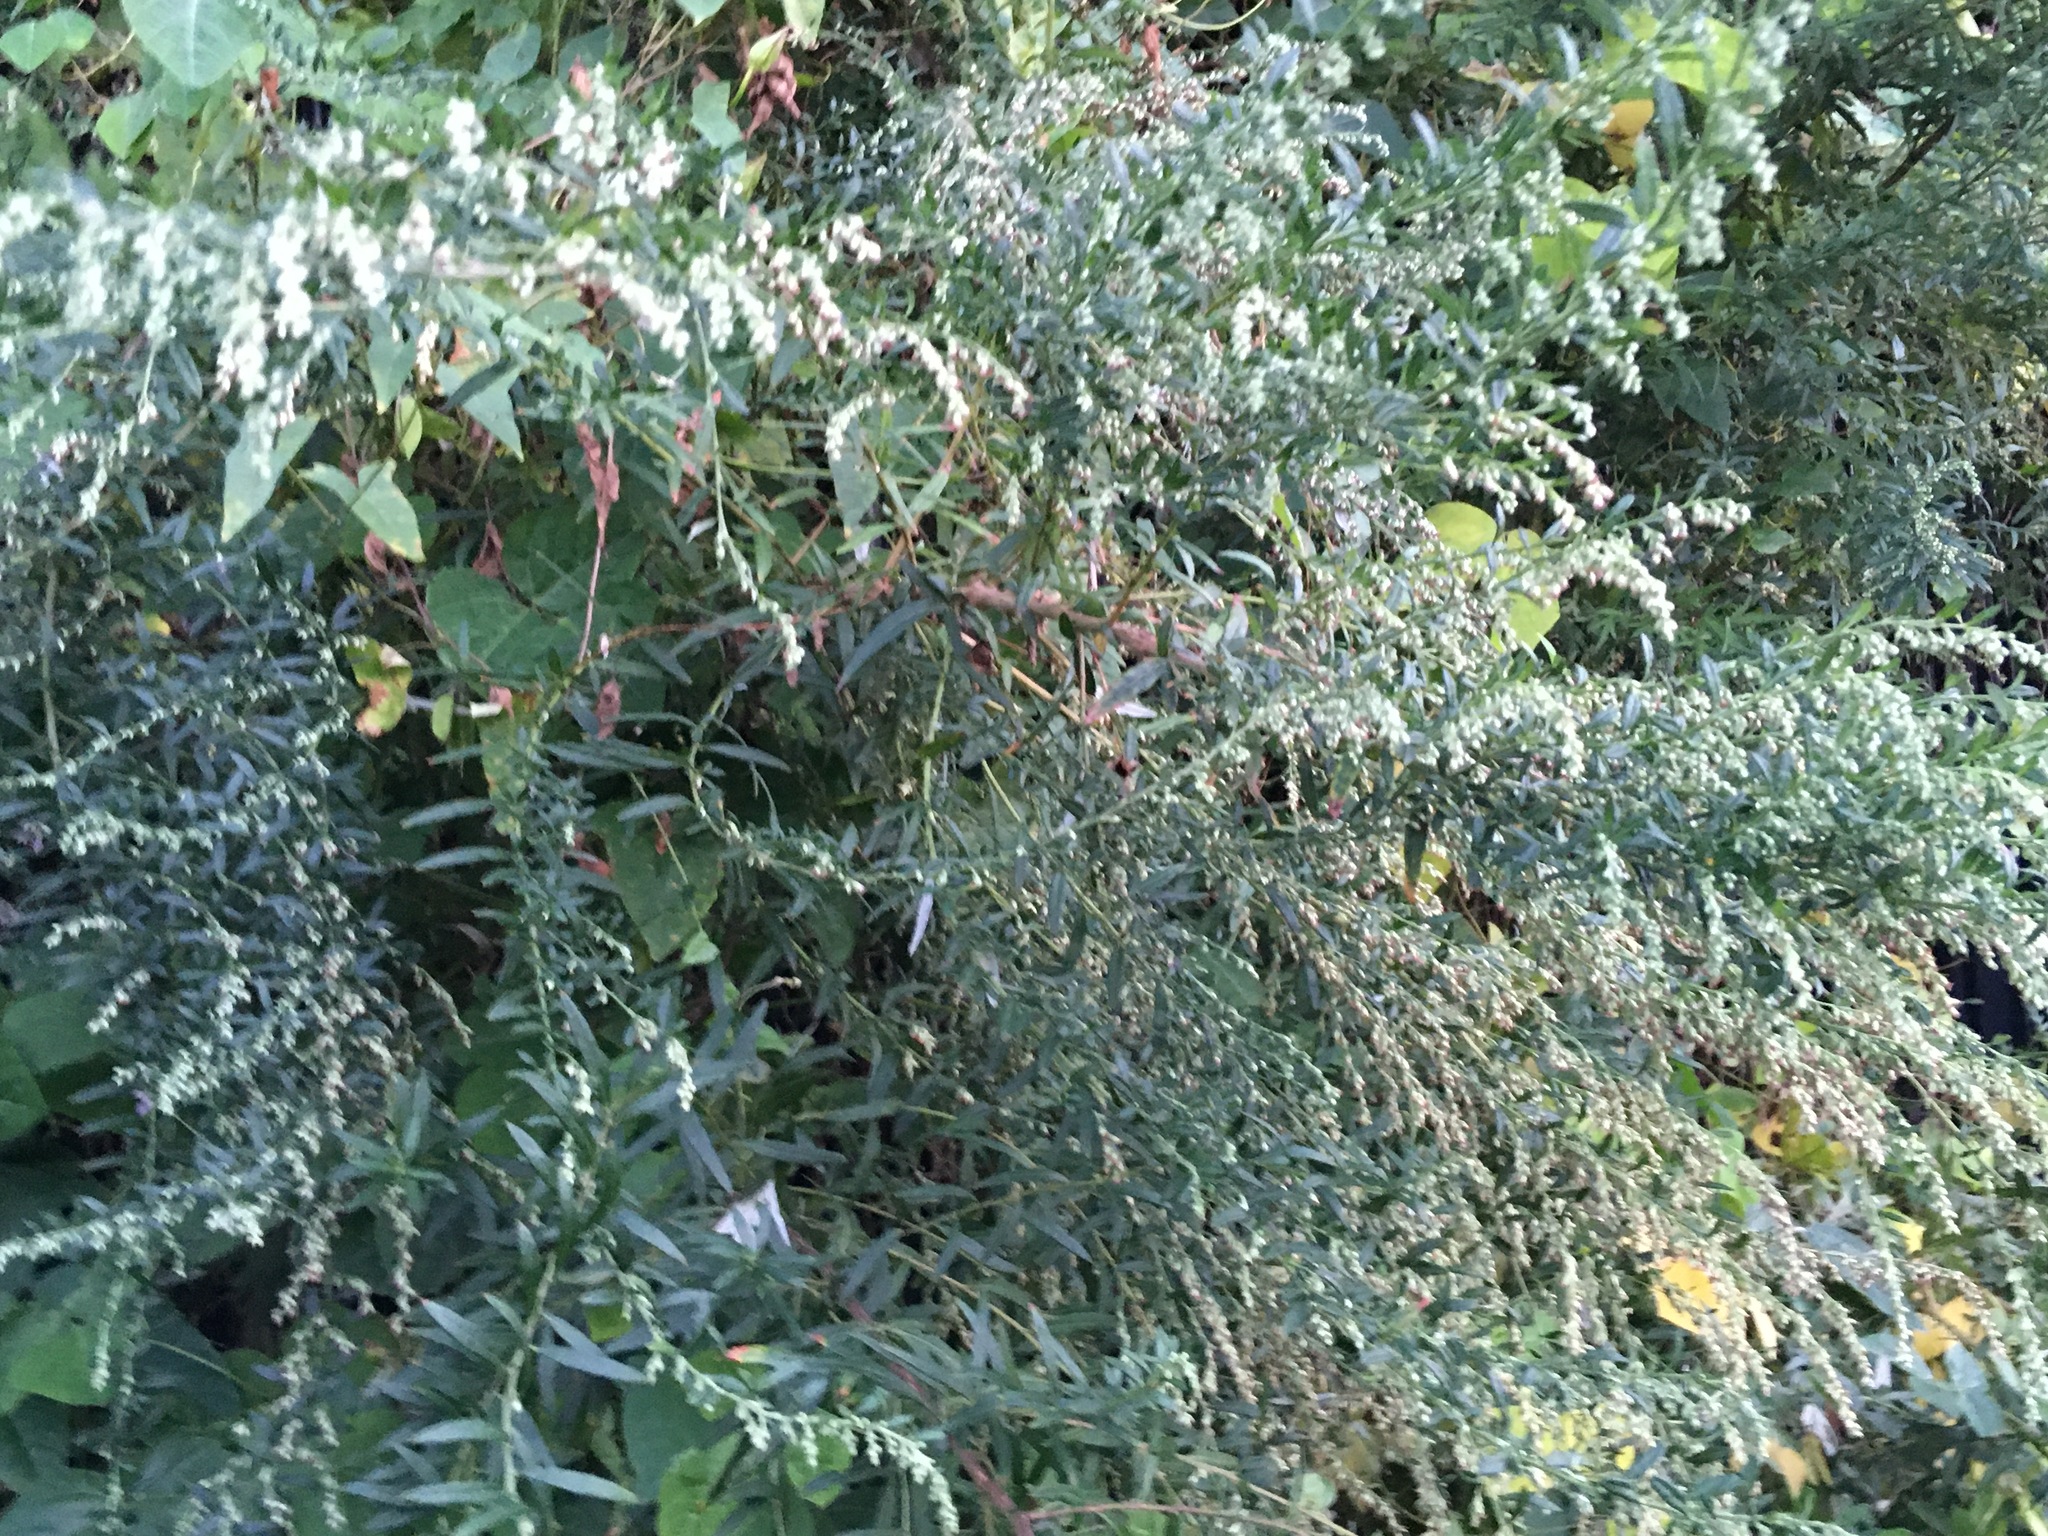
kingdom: Plantae
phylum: Tracheophyta
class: Magnoliopsida
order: Asterales
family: Asteraceae
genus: Artemisia
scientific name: Artemisia vulgaris
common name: Mugwort
